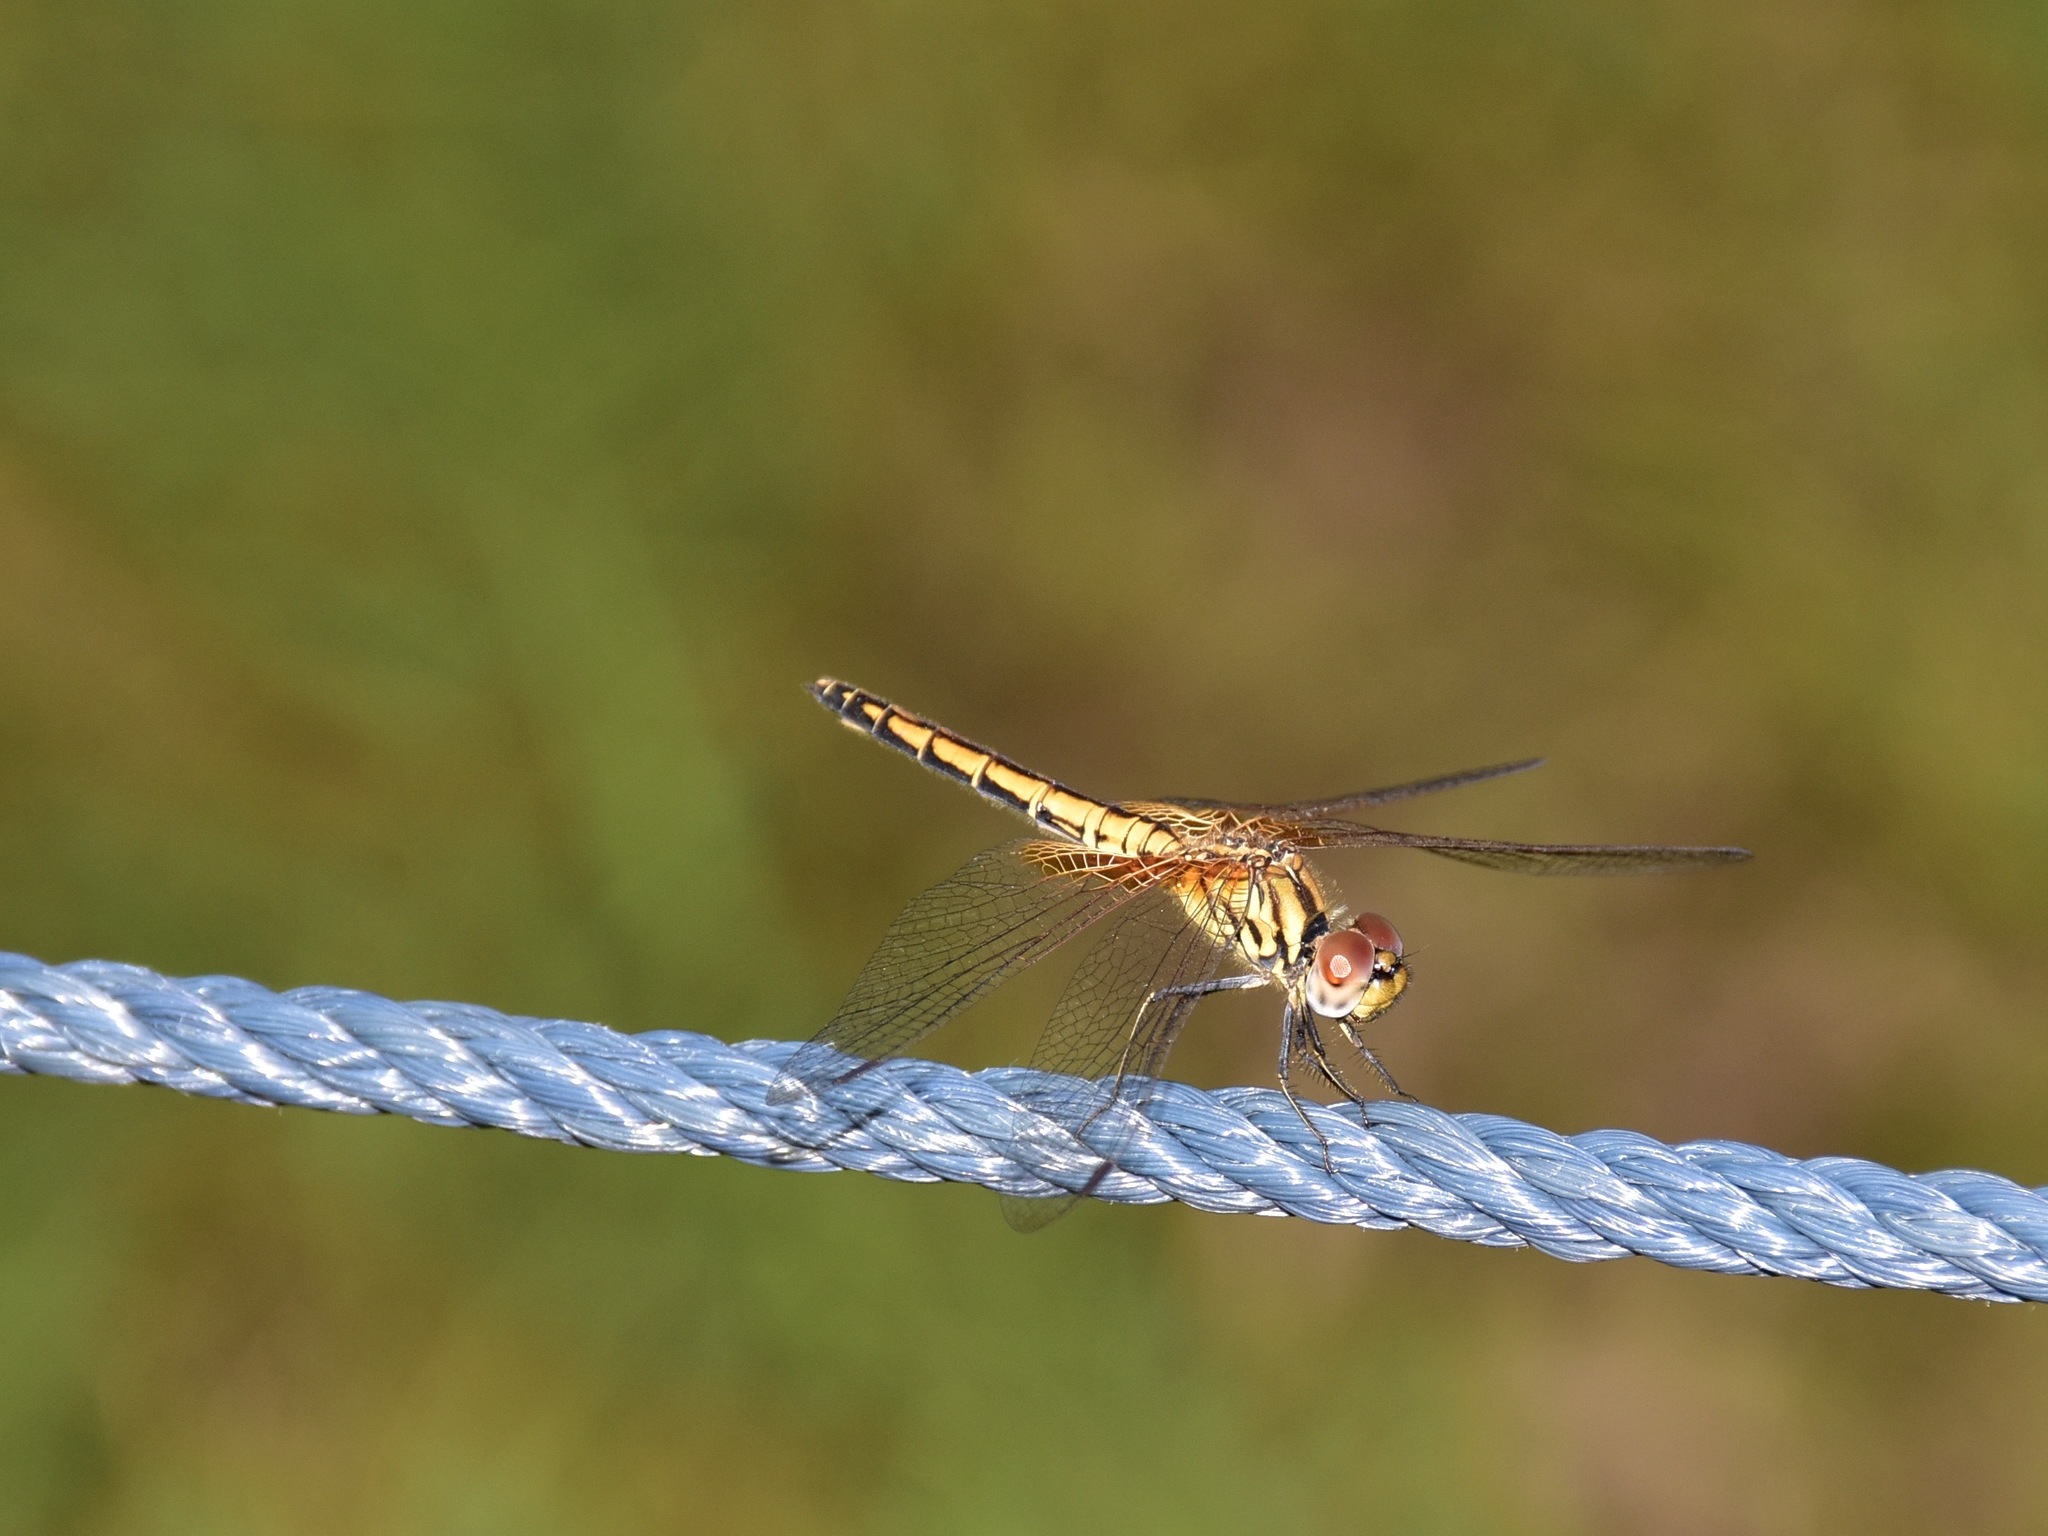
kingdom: Animalia
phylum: Arthropoda
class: Insecta
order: Odonata
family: Libellulidae
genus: Trithemis
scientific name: Trithemis aurora
